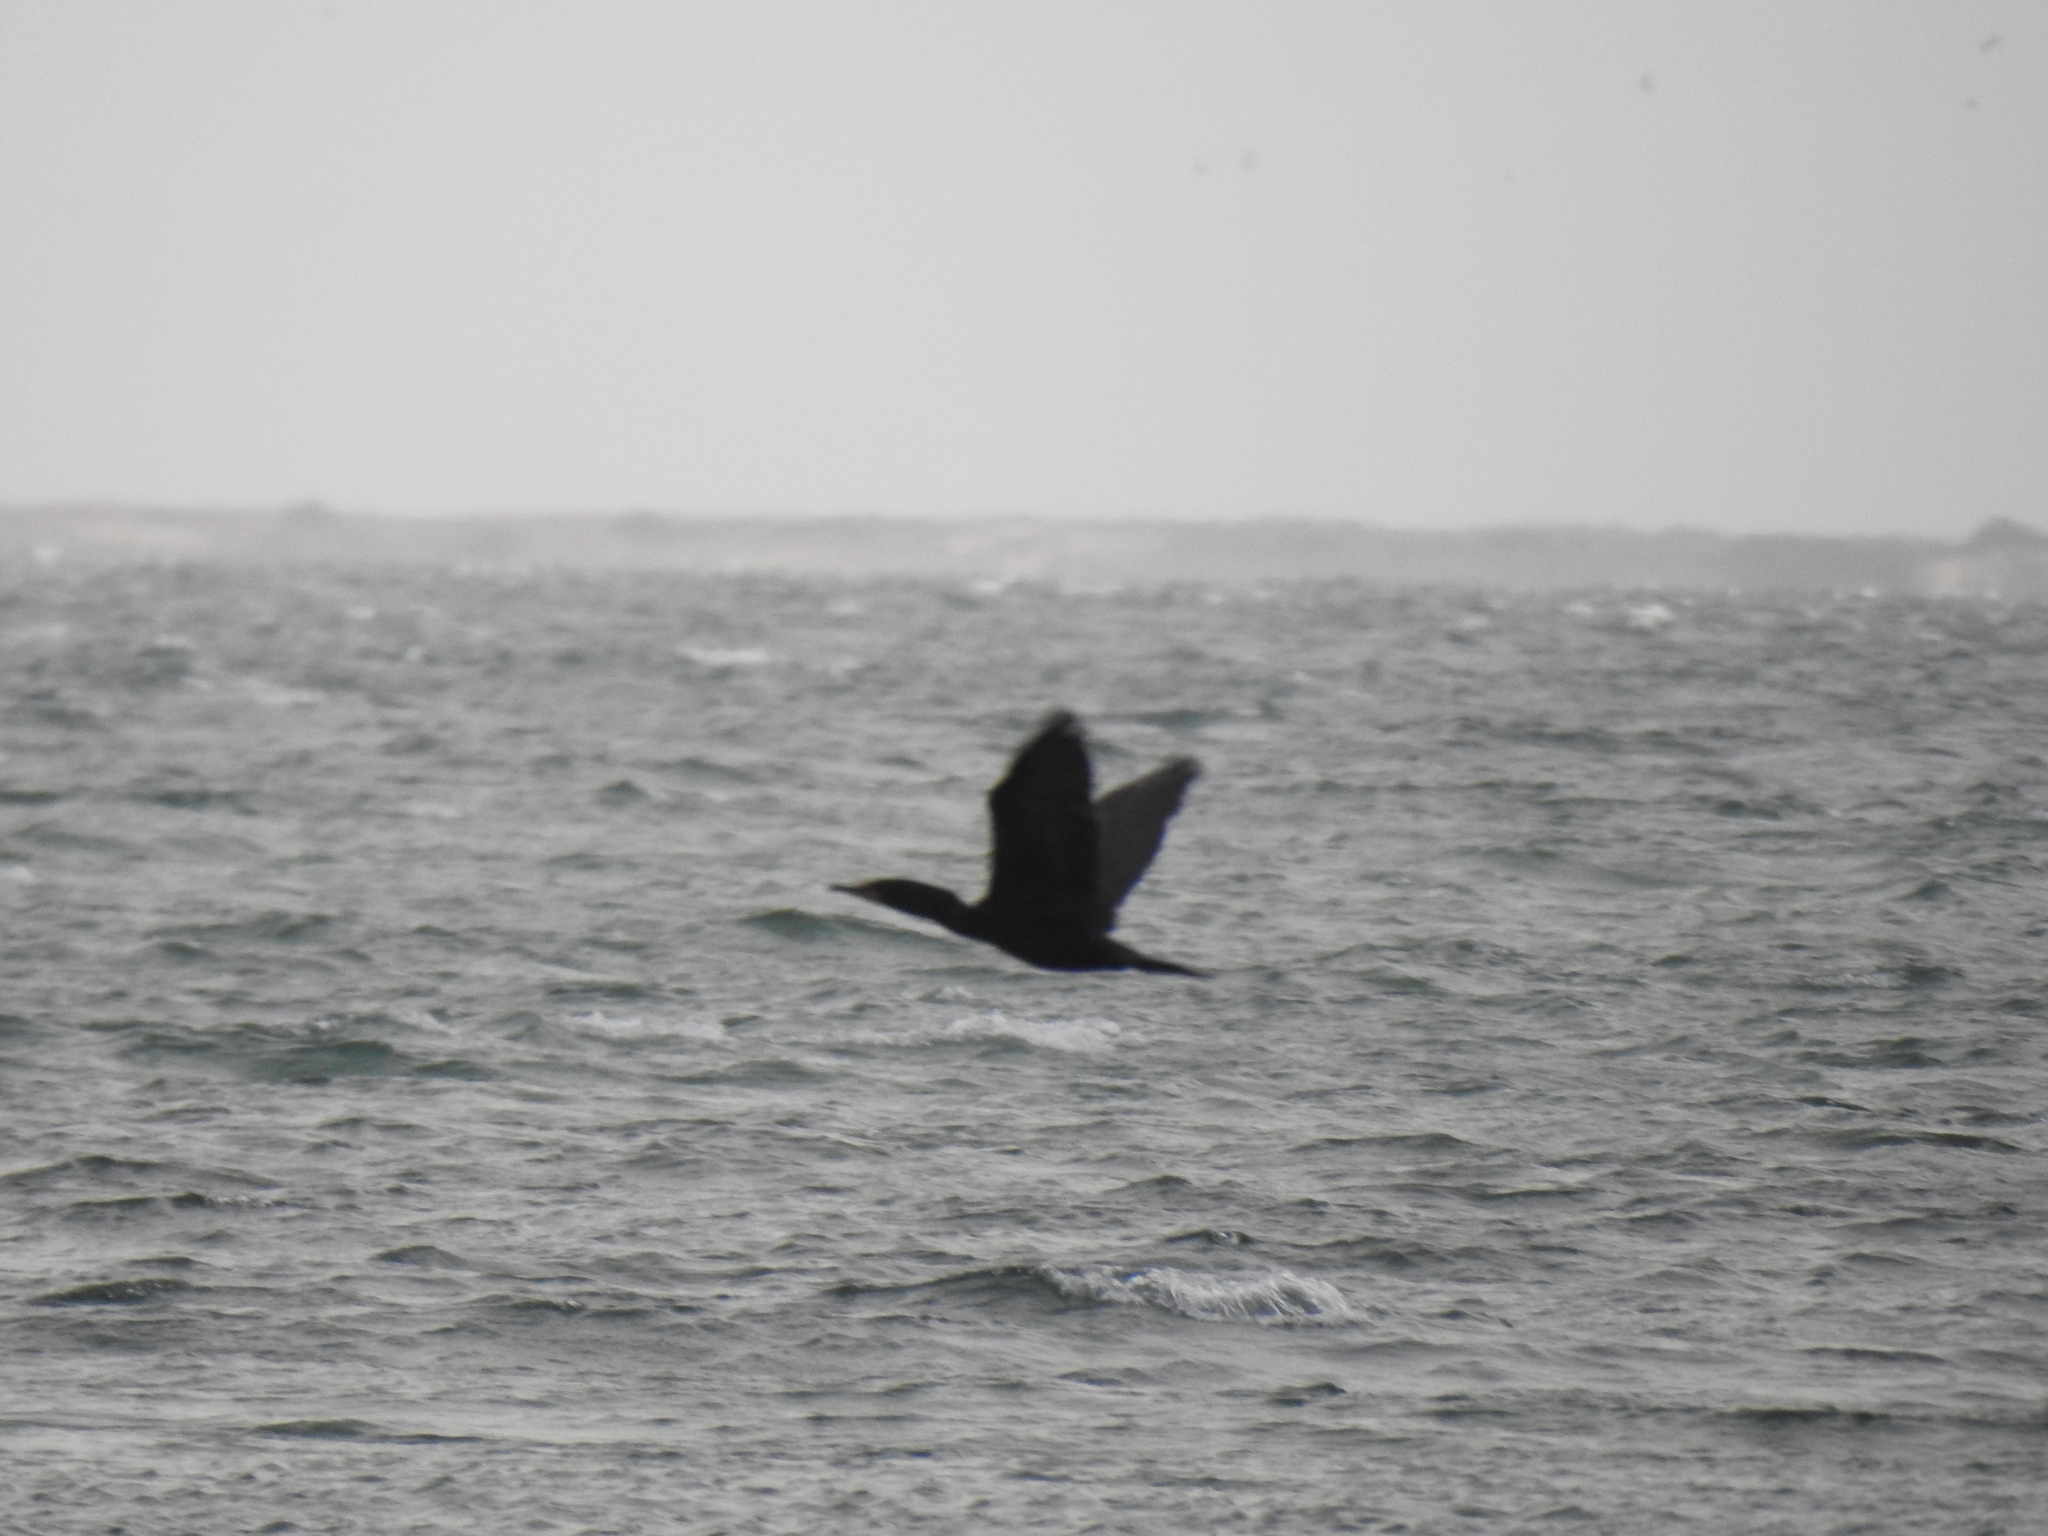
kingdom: Animalia
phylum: Chordata
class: Aves
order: Suliformes
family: Phalacrocoracidae
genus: Phalacrocorax
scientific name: Phalacrocorax auritus
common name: Double-crested cormorant
